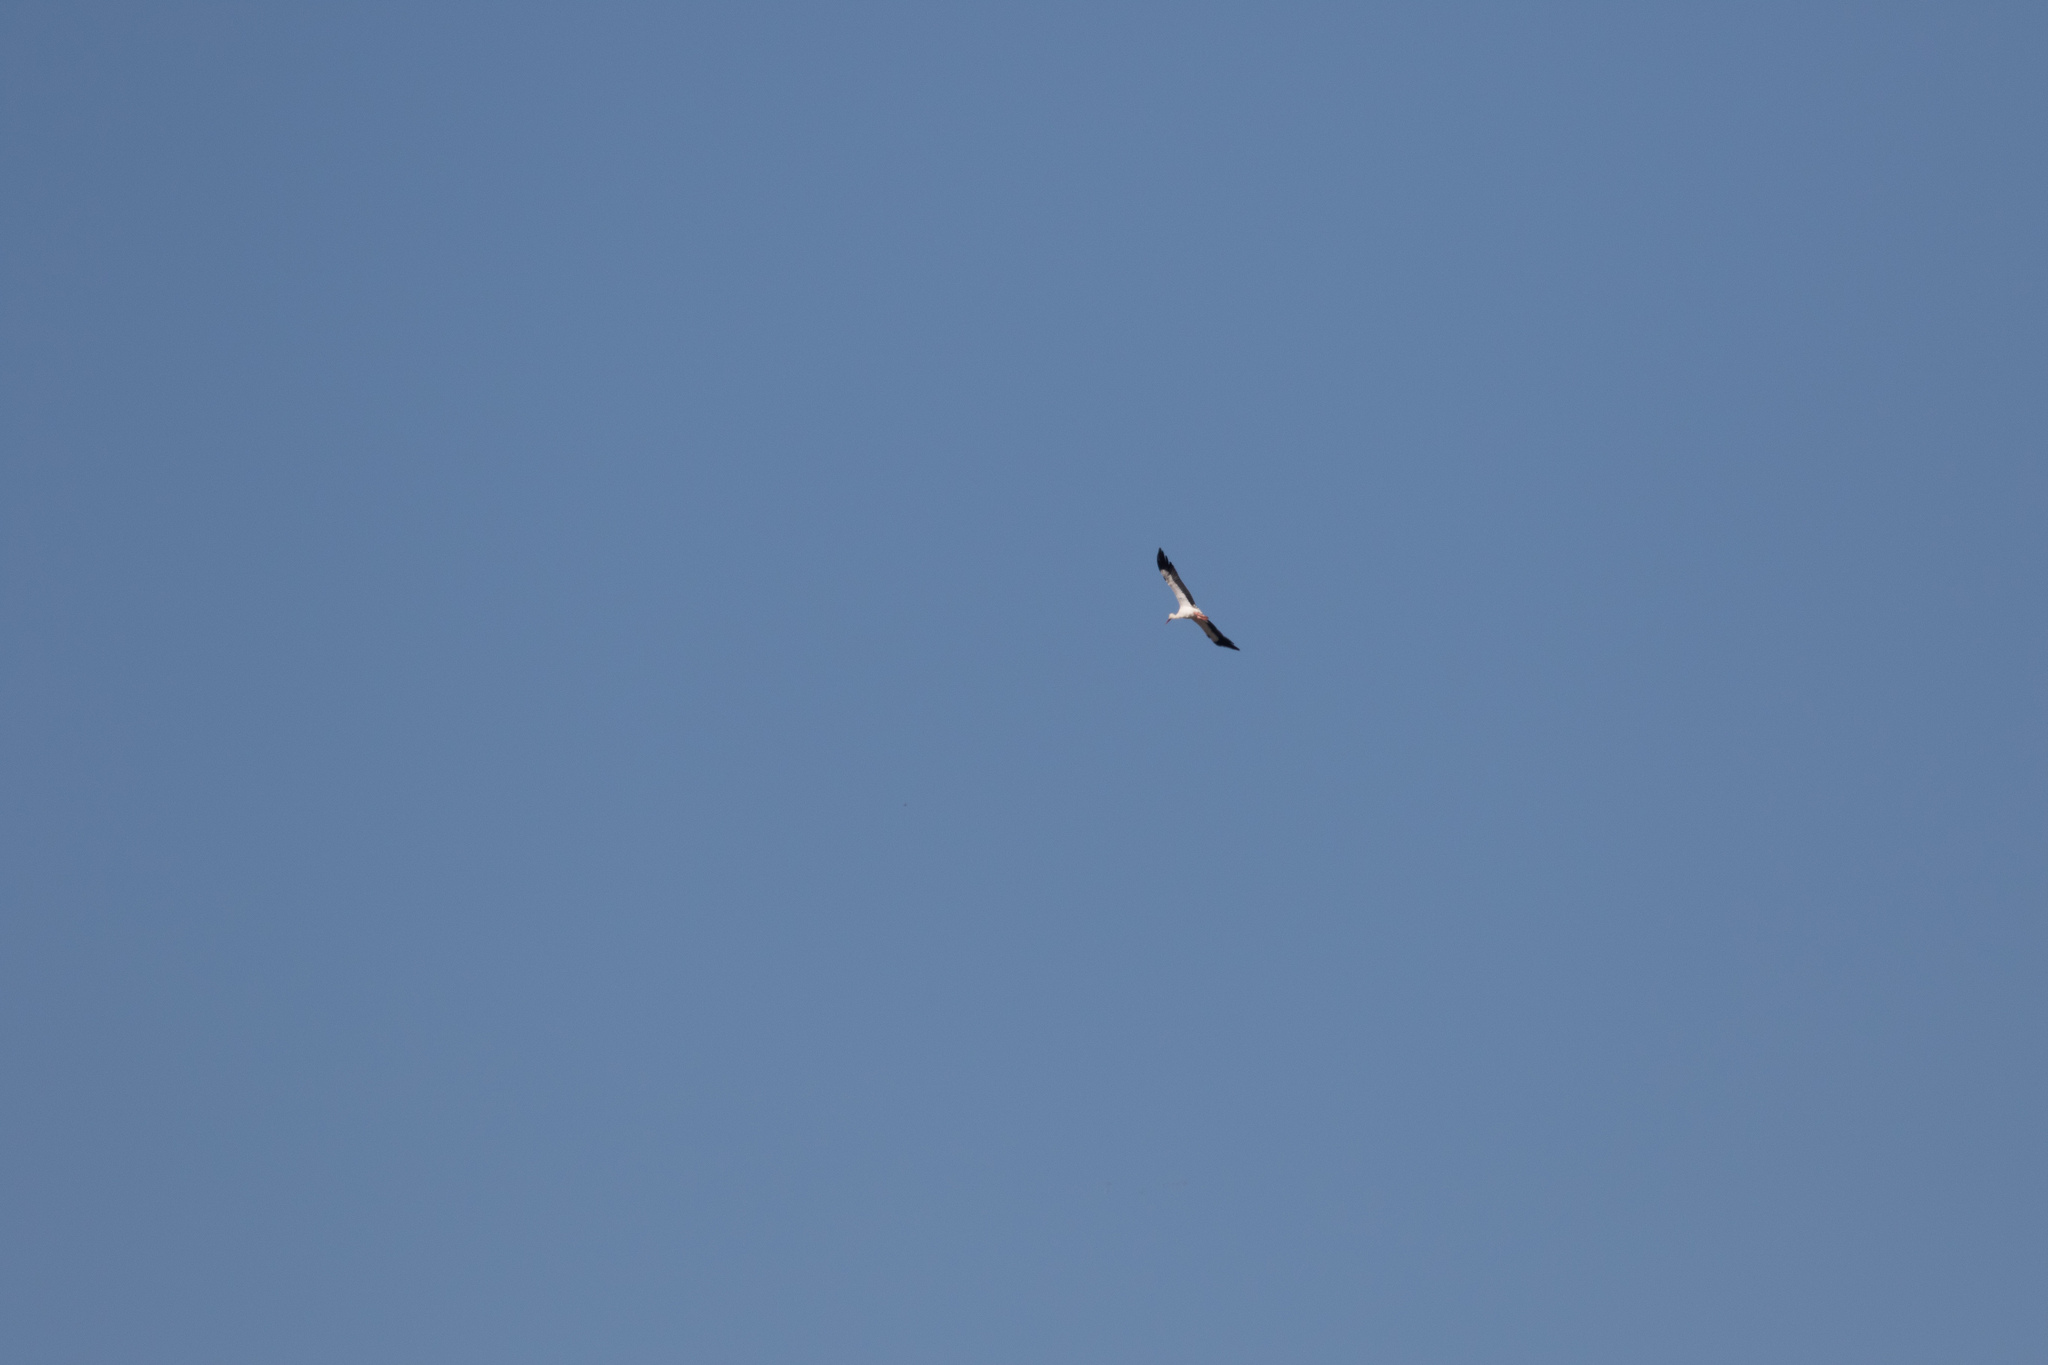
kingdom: Animalia
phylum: Chordata
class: Aves
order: Ciconiiformes
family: Ciconiidae
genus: Ciconia
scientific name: Ciconia ciconia
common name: White stork
